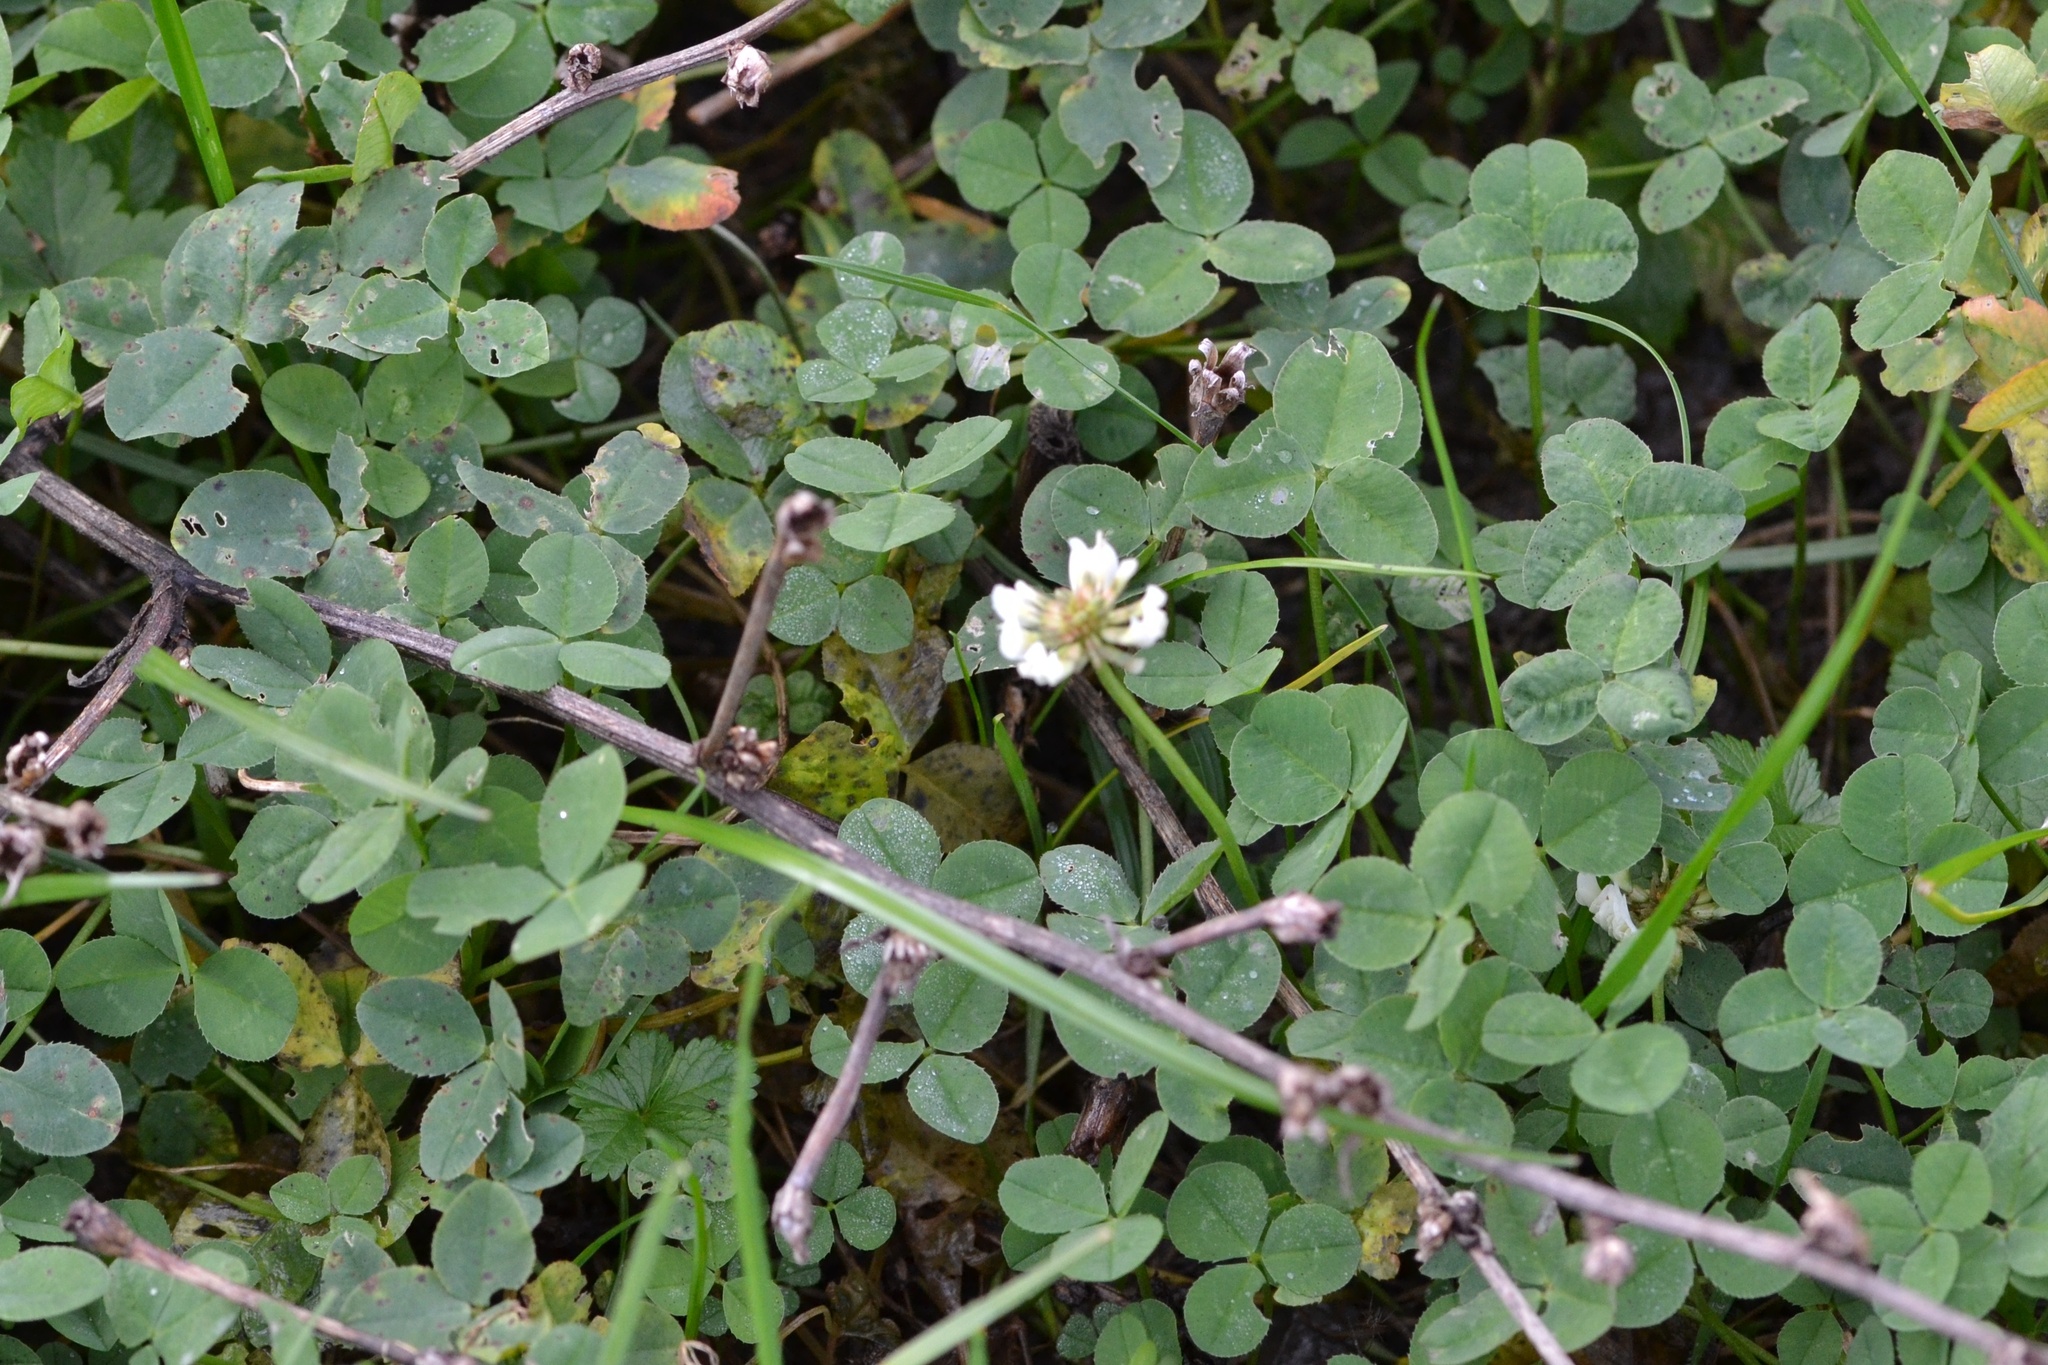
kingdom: Plantae
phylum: Tracheophyta
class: Magnoliopsida
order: Fabales
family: Fabaceae
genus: Trifolium
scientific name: Trifolium repens
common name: White clover
